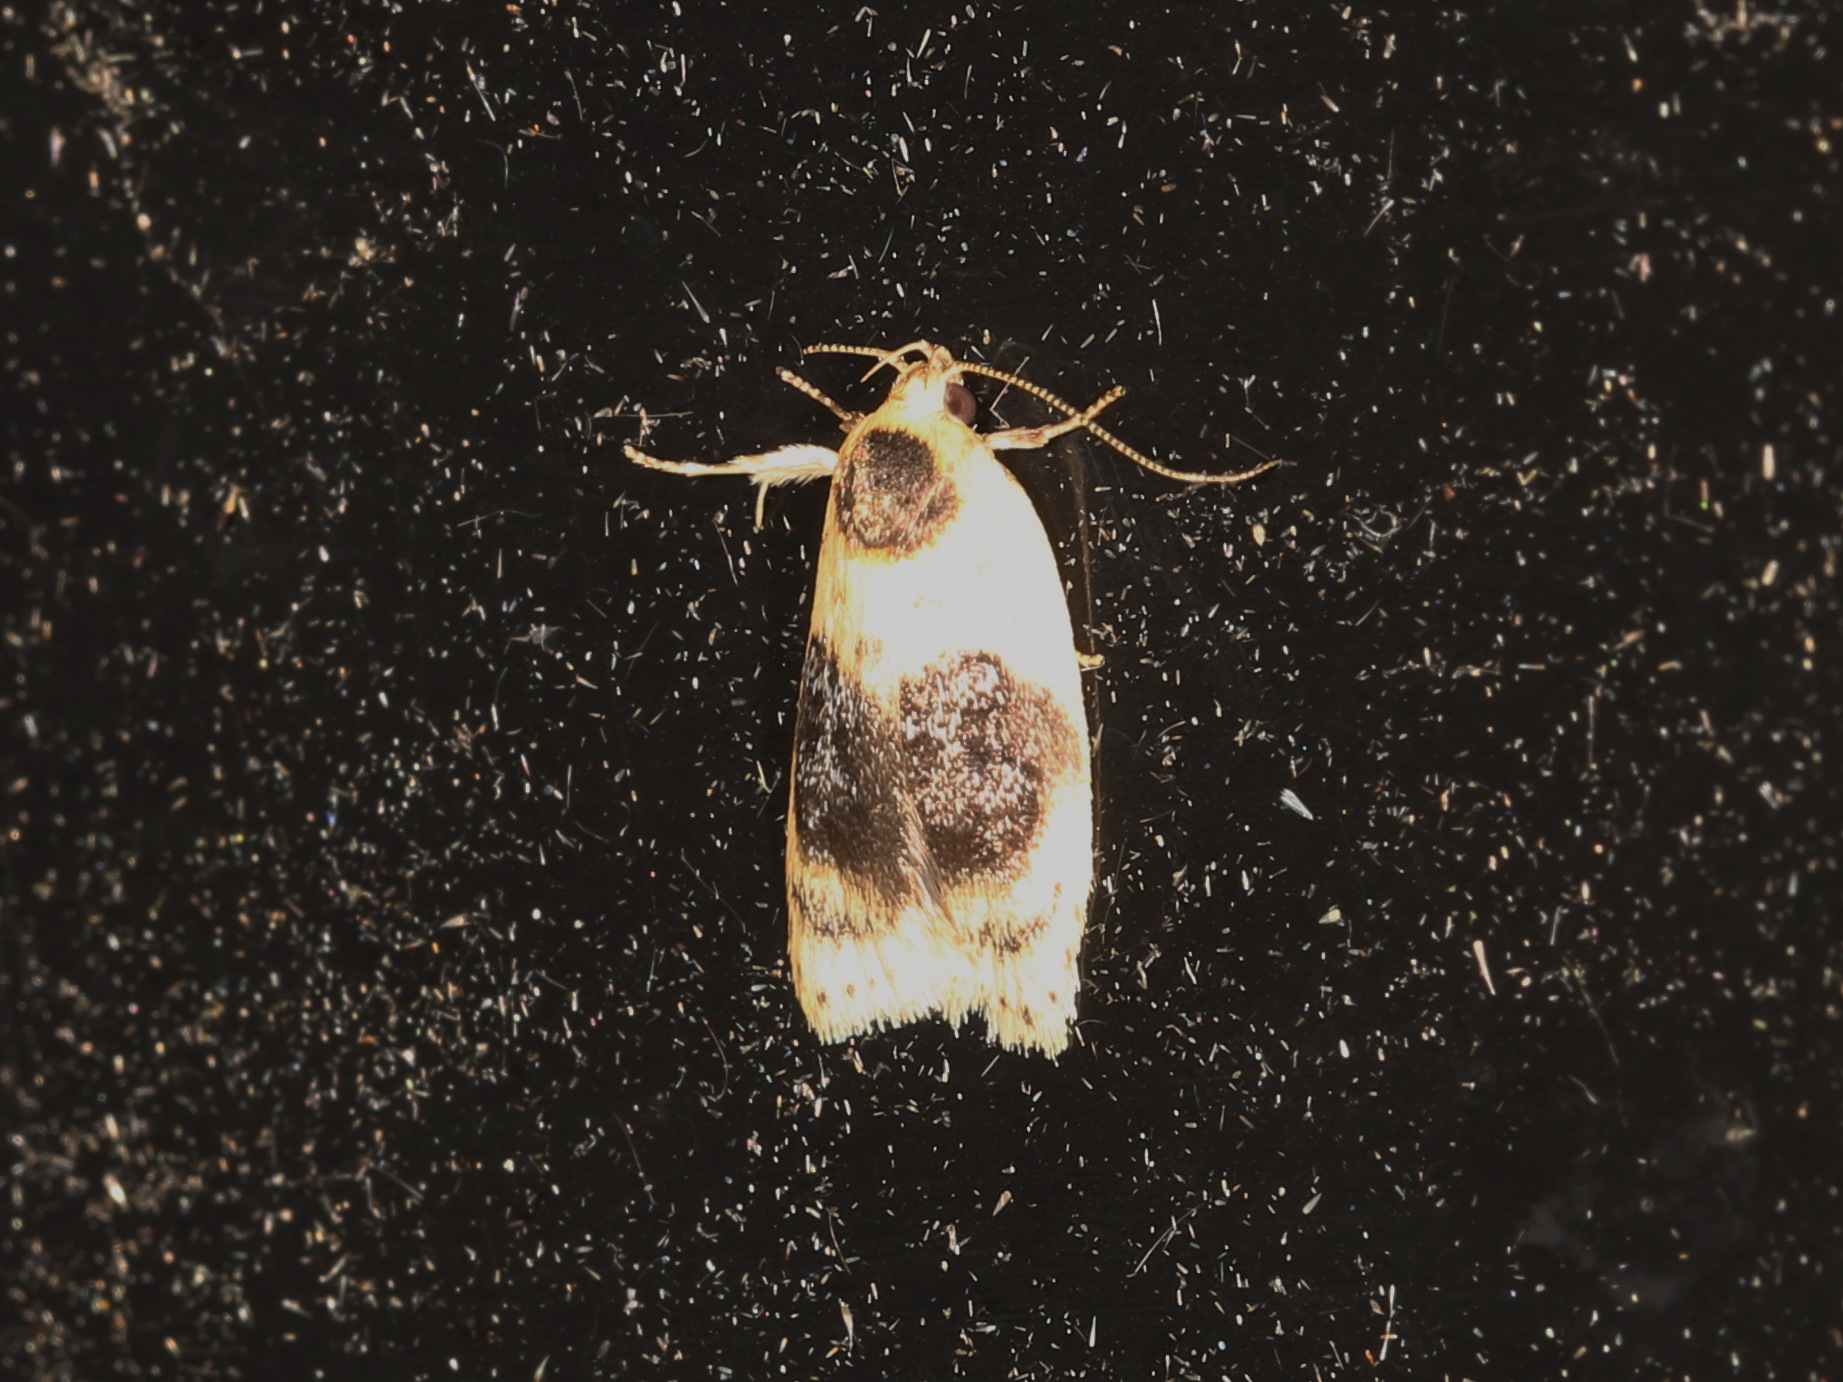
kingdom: Animalia
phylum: Arthropoda
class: Insecta
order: Lepidoptera
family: Oecophoridae
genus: Garrha
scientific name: Garrha ocellifera
